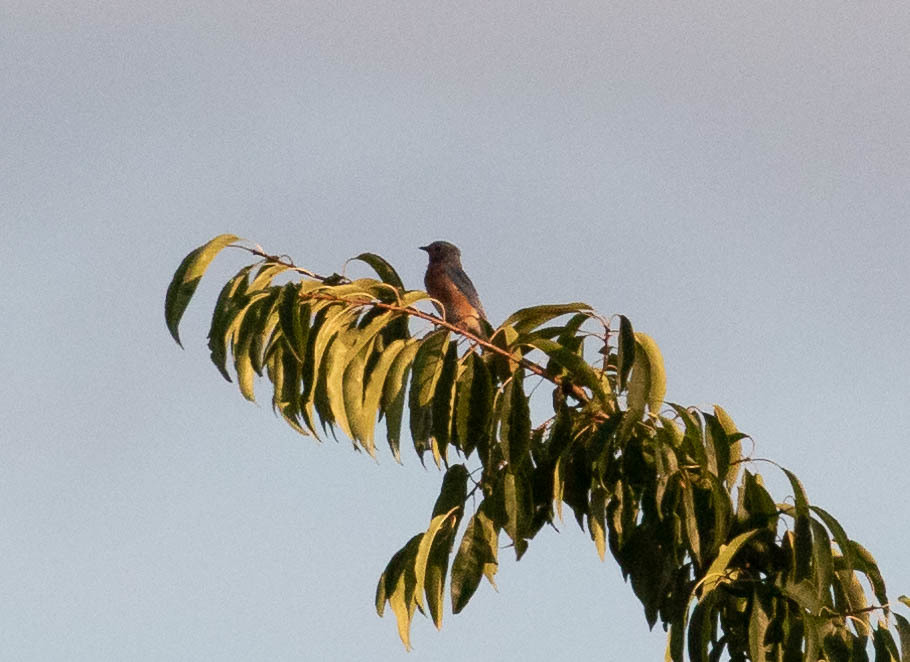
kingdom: Animalia
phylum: Chordata
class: Aves
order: Passeriformes
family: Turdidae
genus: Sialia
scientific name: Sialia sialis
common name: Eastern bluebird
